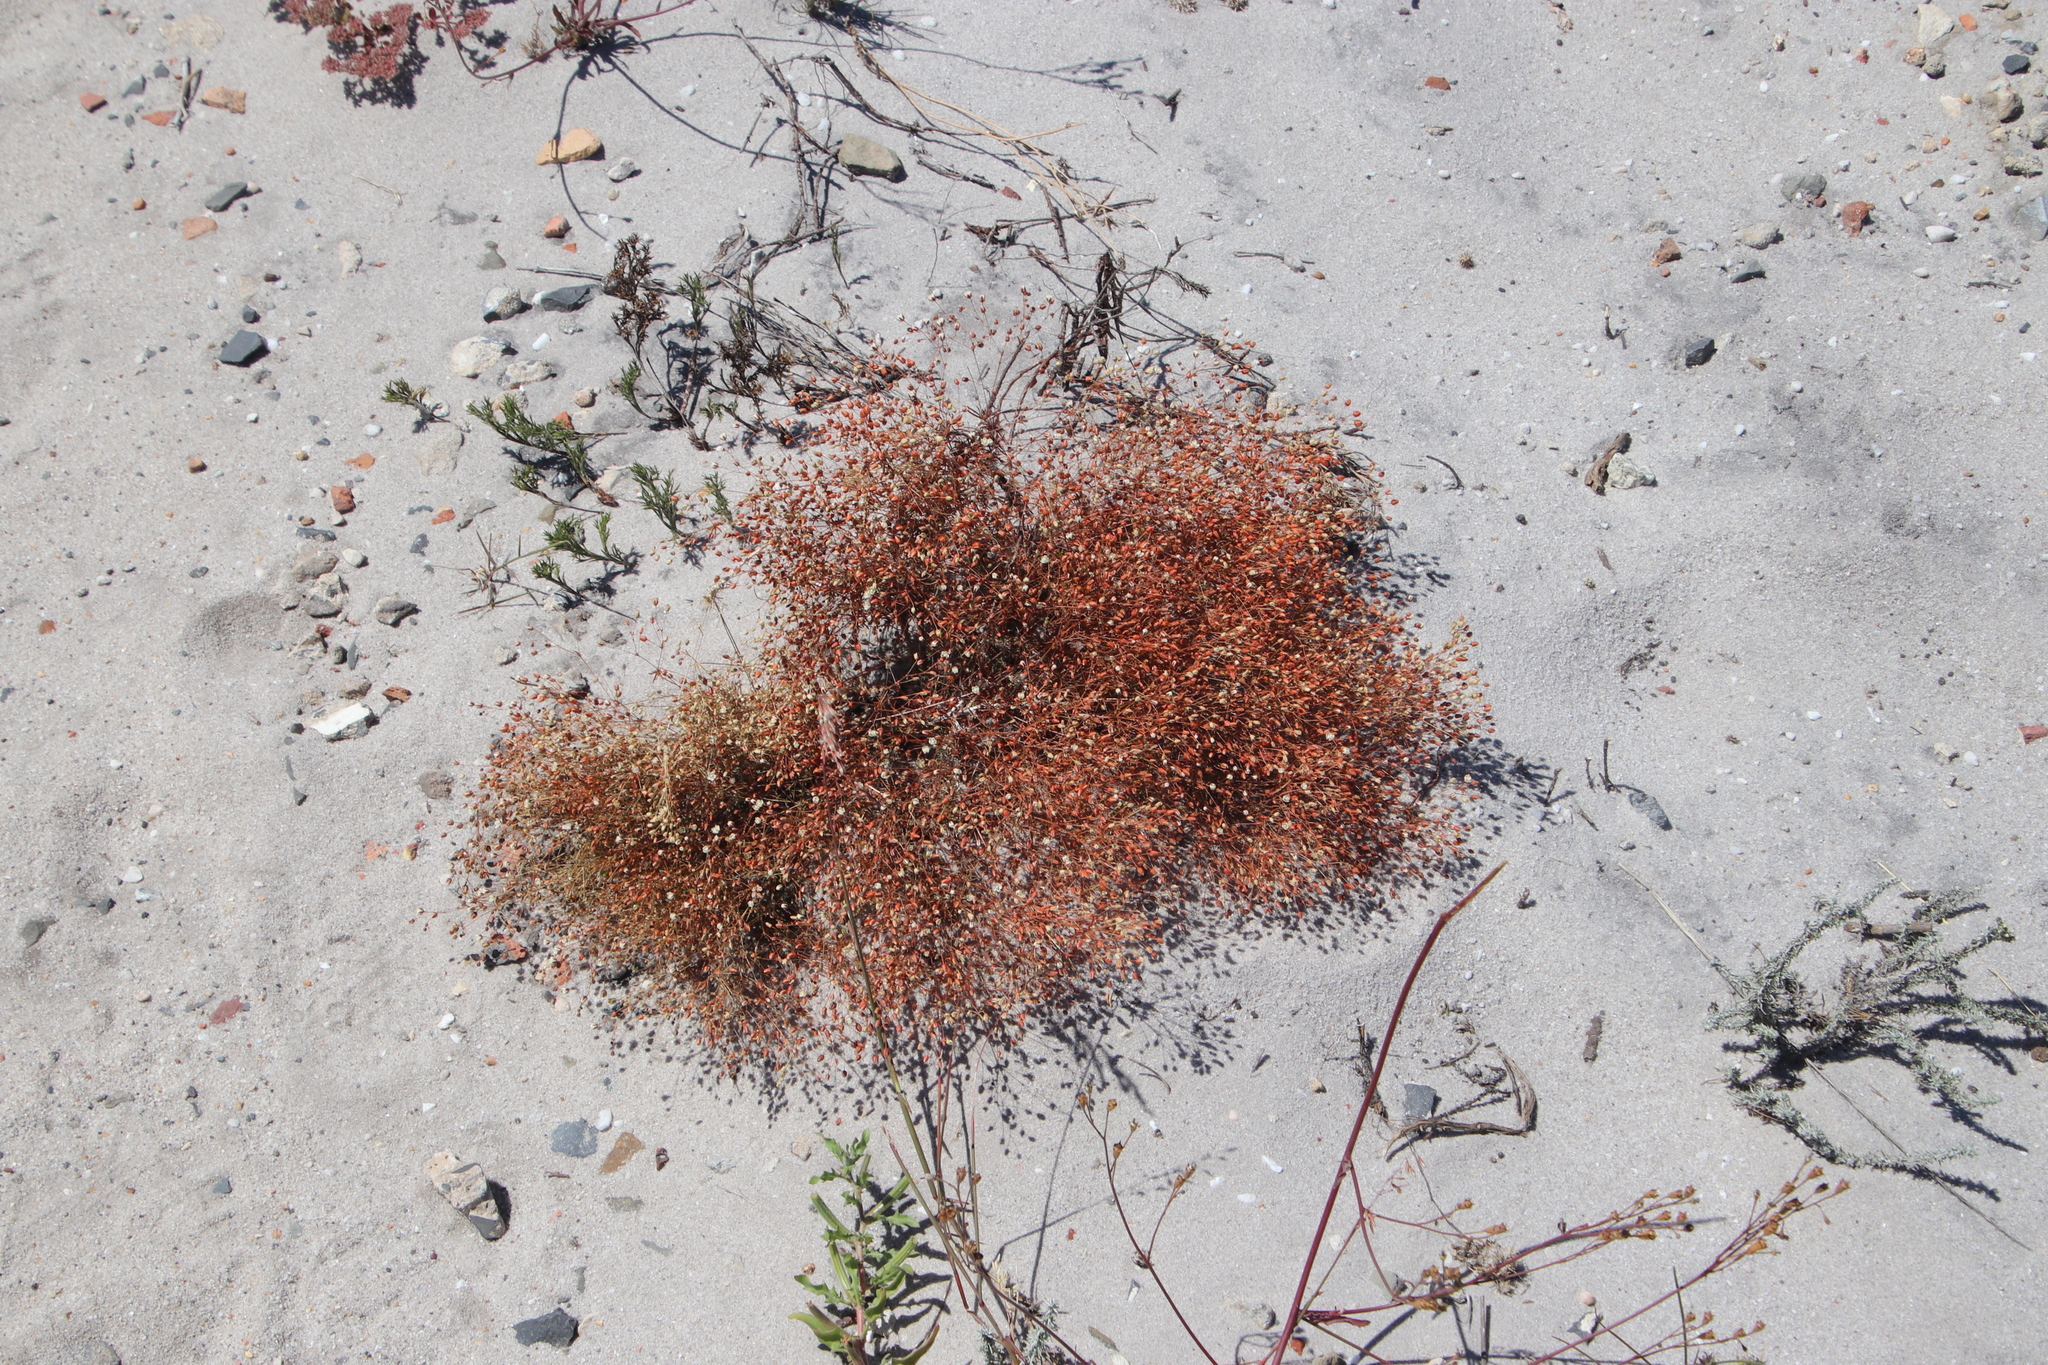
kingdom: Plantae
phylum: Tracheophyta
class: Magnoliopsida
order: Caryophyllales
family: Molluginaceae
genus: Pharnaceum
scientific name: Pharnaceum incanum
